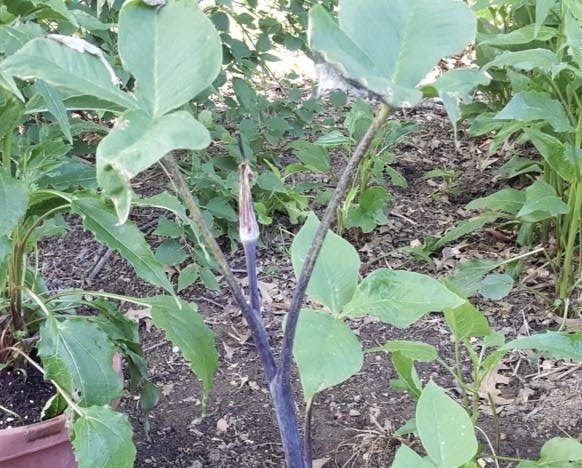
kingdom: Plantae
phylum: Tracheophyta
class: Liliopsida
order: Alismatales
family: Araceae
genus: Arisaema
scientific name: Arisaema triphyllum
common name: Jack-in-the-pulpit
